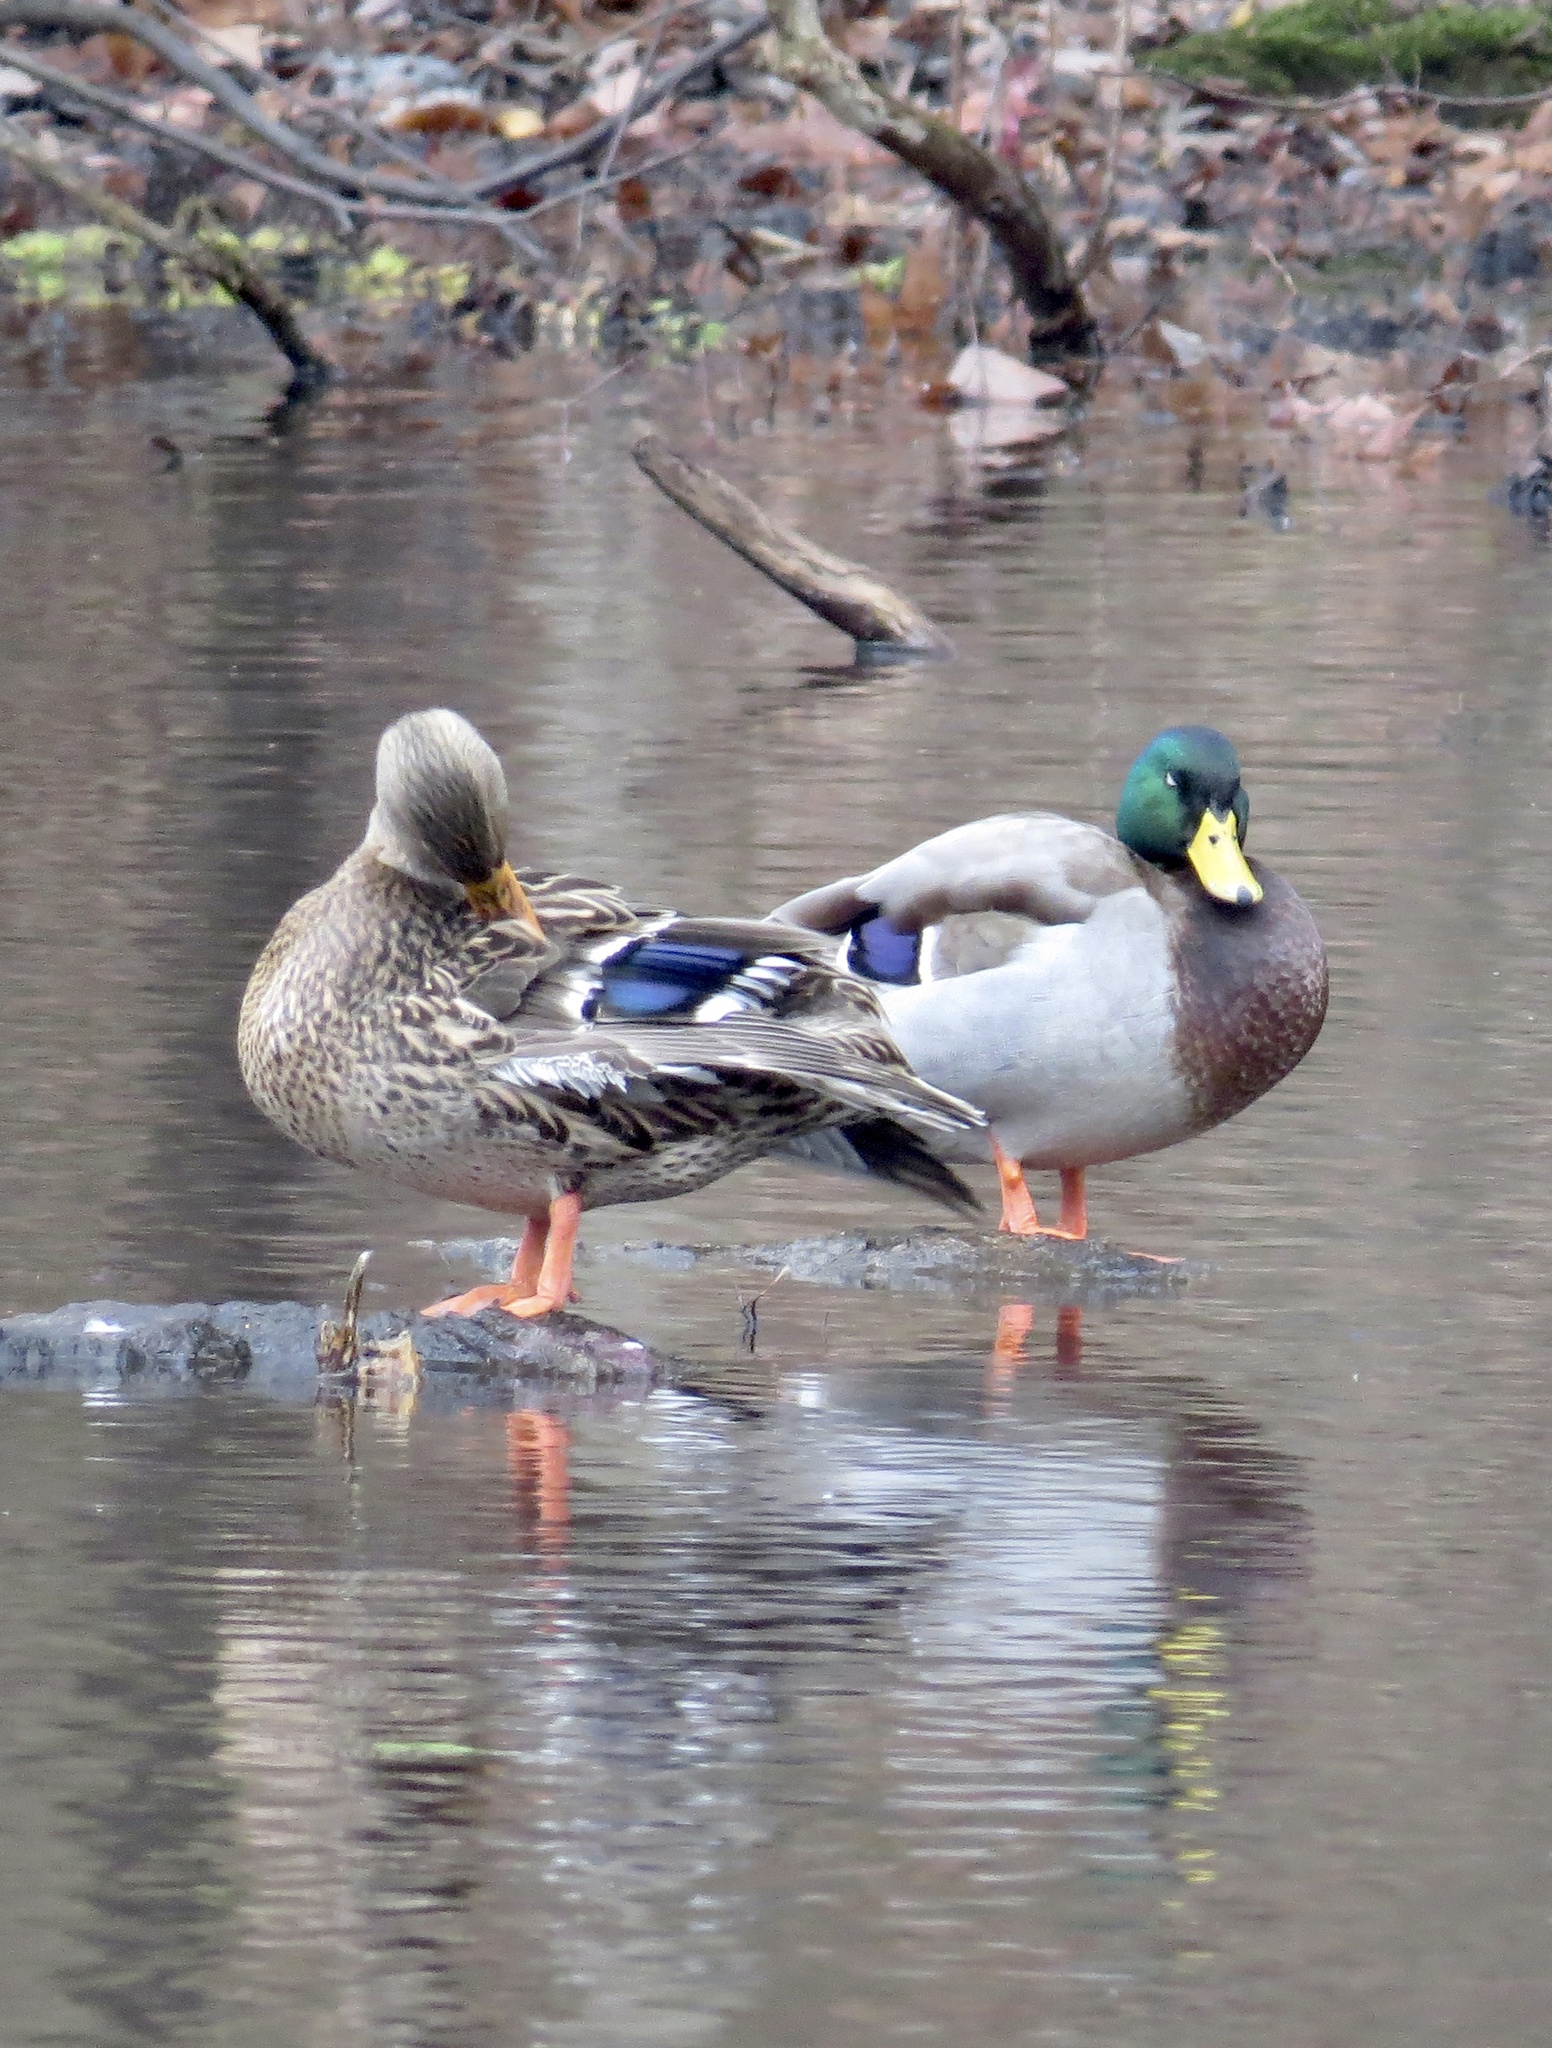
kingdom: Animalia
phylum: Chordata
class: Aves
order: Anseriformes
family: Anatidae
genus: Anas
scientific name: Anas platyrhynchos
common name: Mallard
